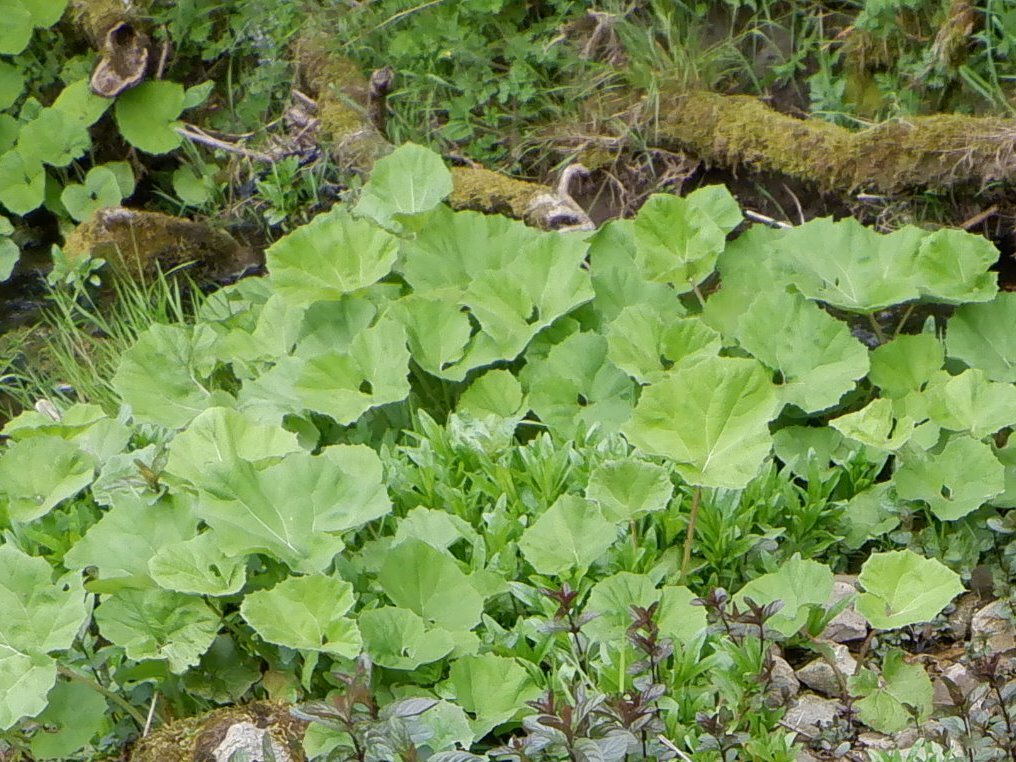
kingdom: Plantae
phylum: Tracheophyta
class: Magnoliopsida
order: Asterales
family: Asteraceae
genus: Petasites
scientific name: Petasites hybridus
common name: Butterbur
